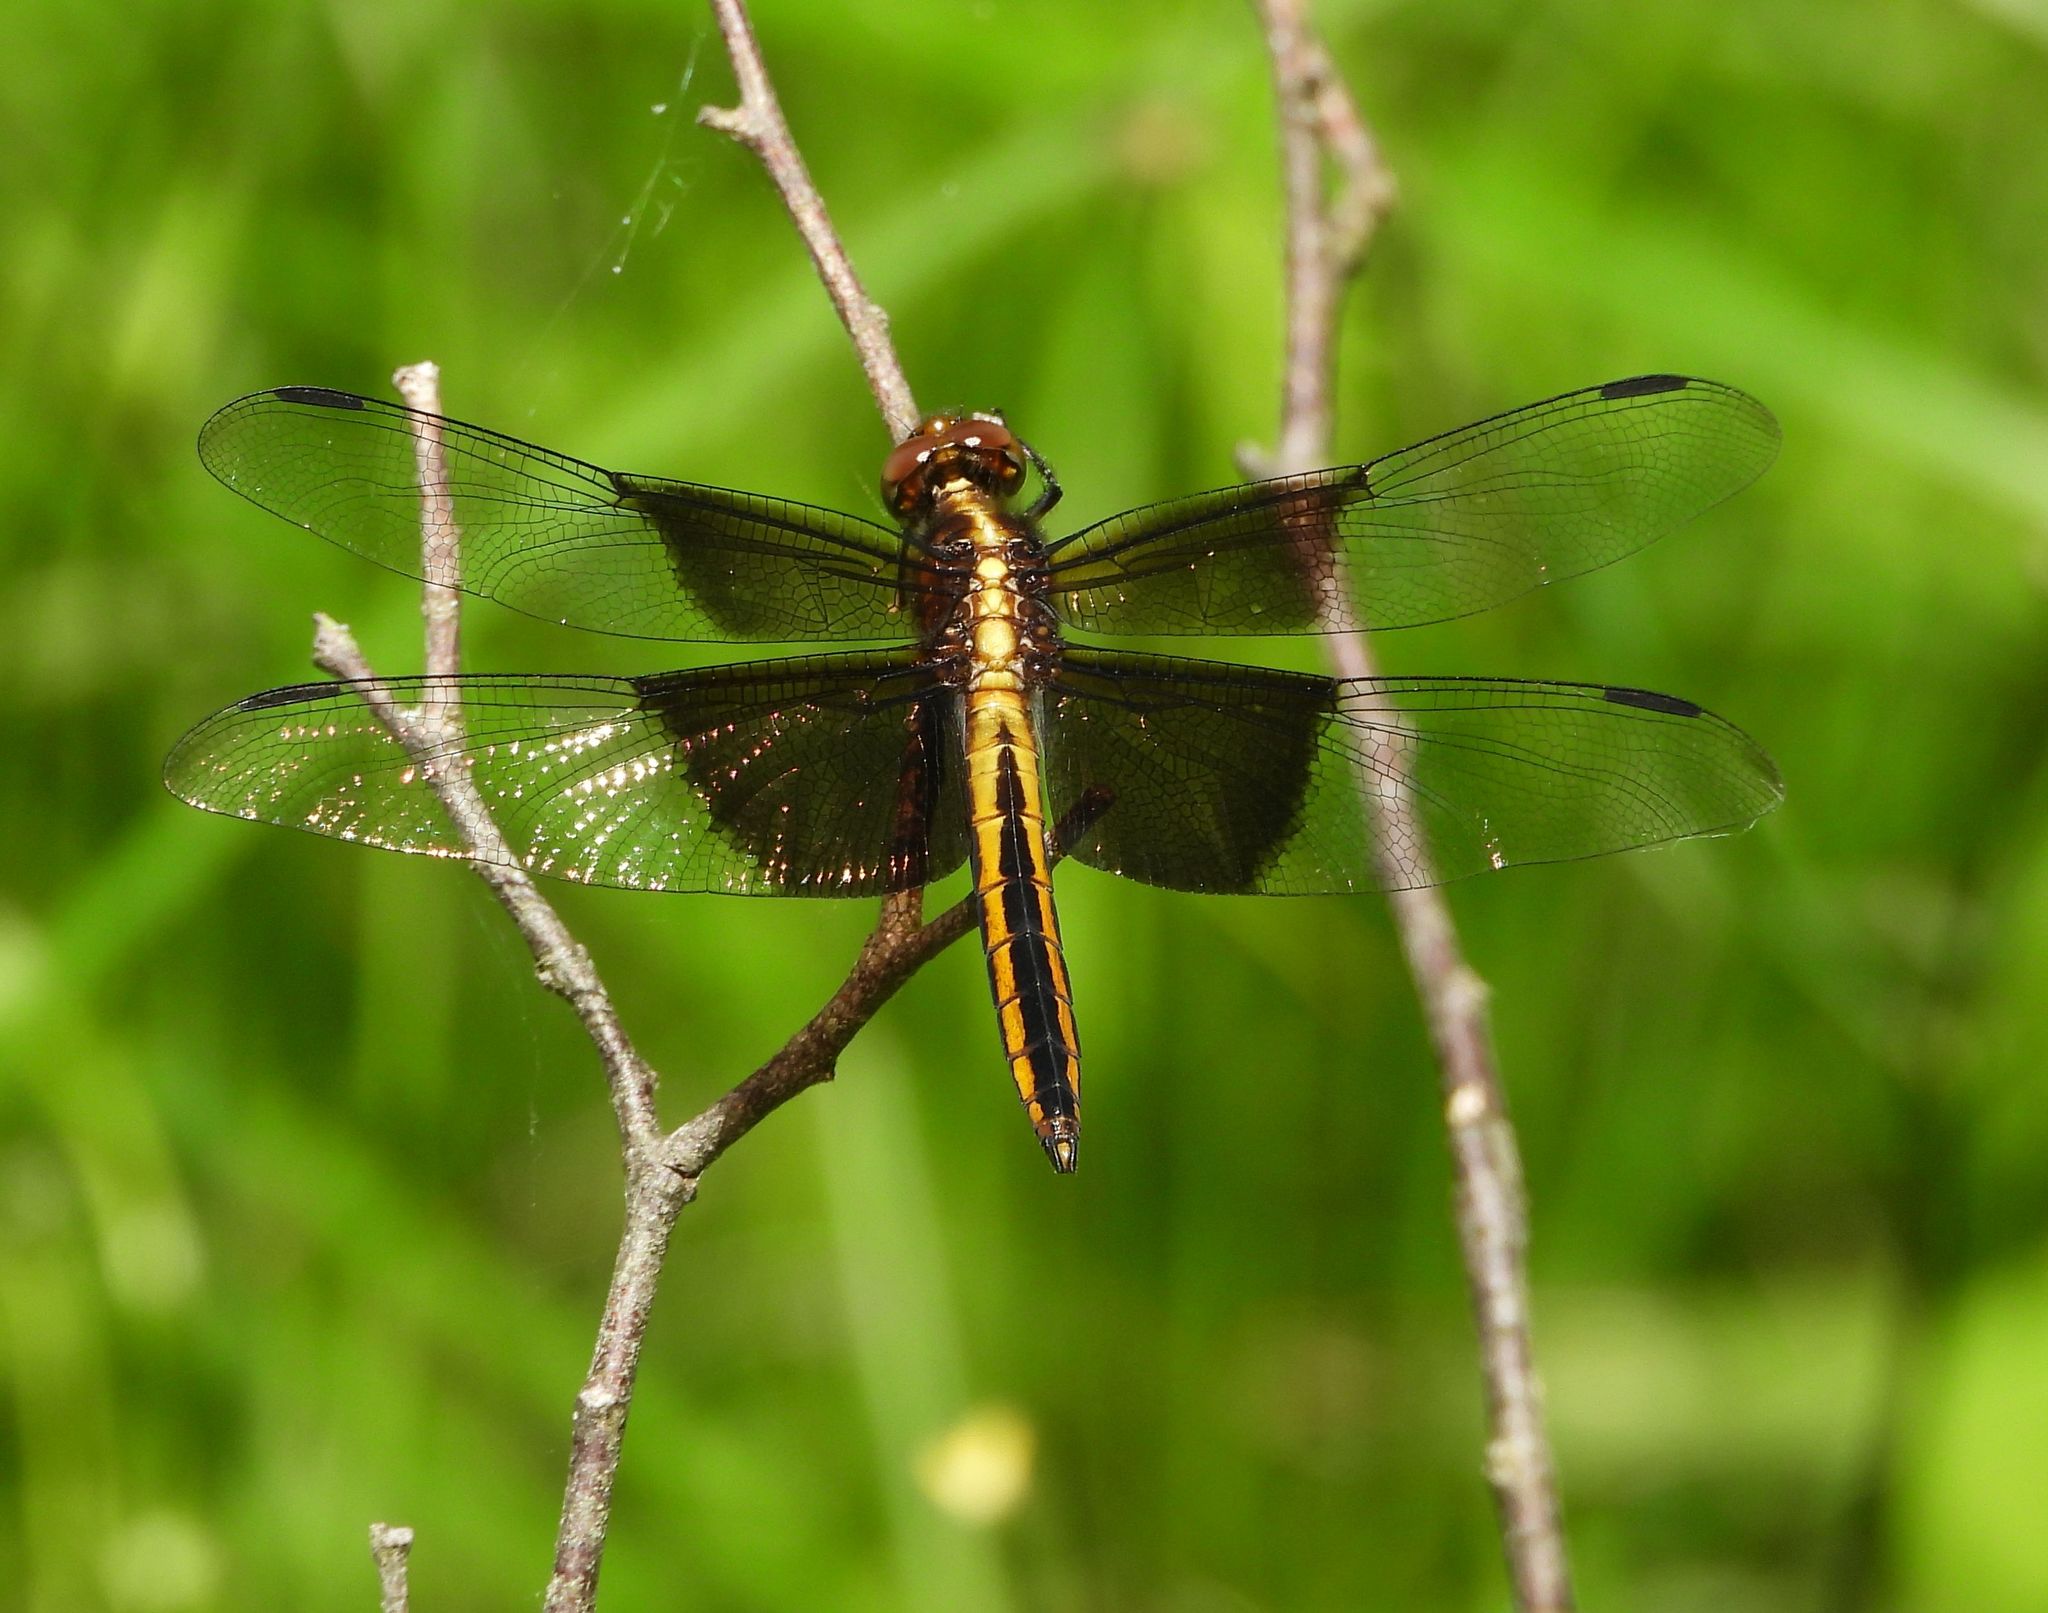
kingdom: Animalia
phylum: Arthropoda
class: Insecta
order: Odonata
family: Libellulidae
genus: Libellula
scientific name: Libellula luctuosa
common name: Widow skimmer
